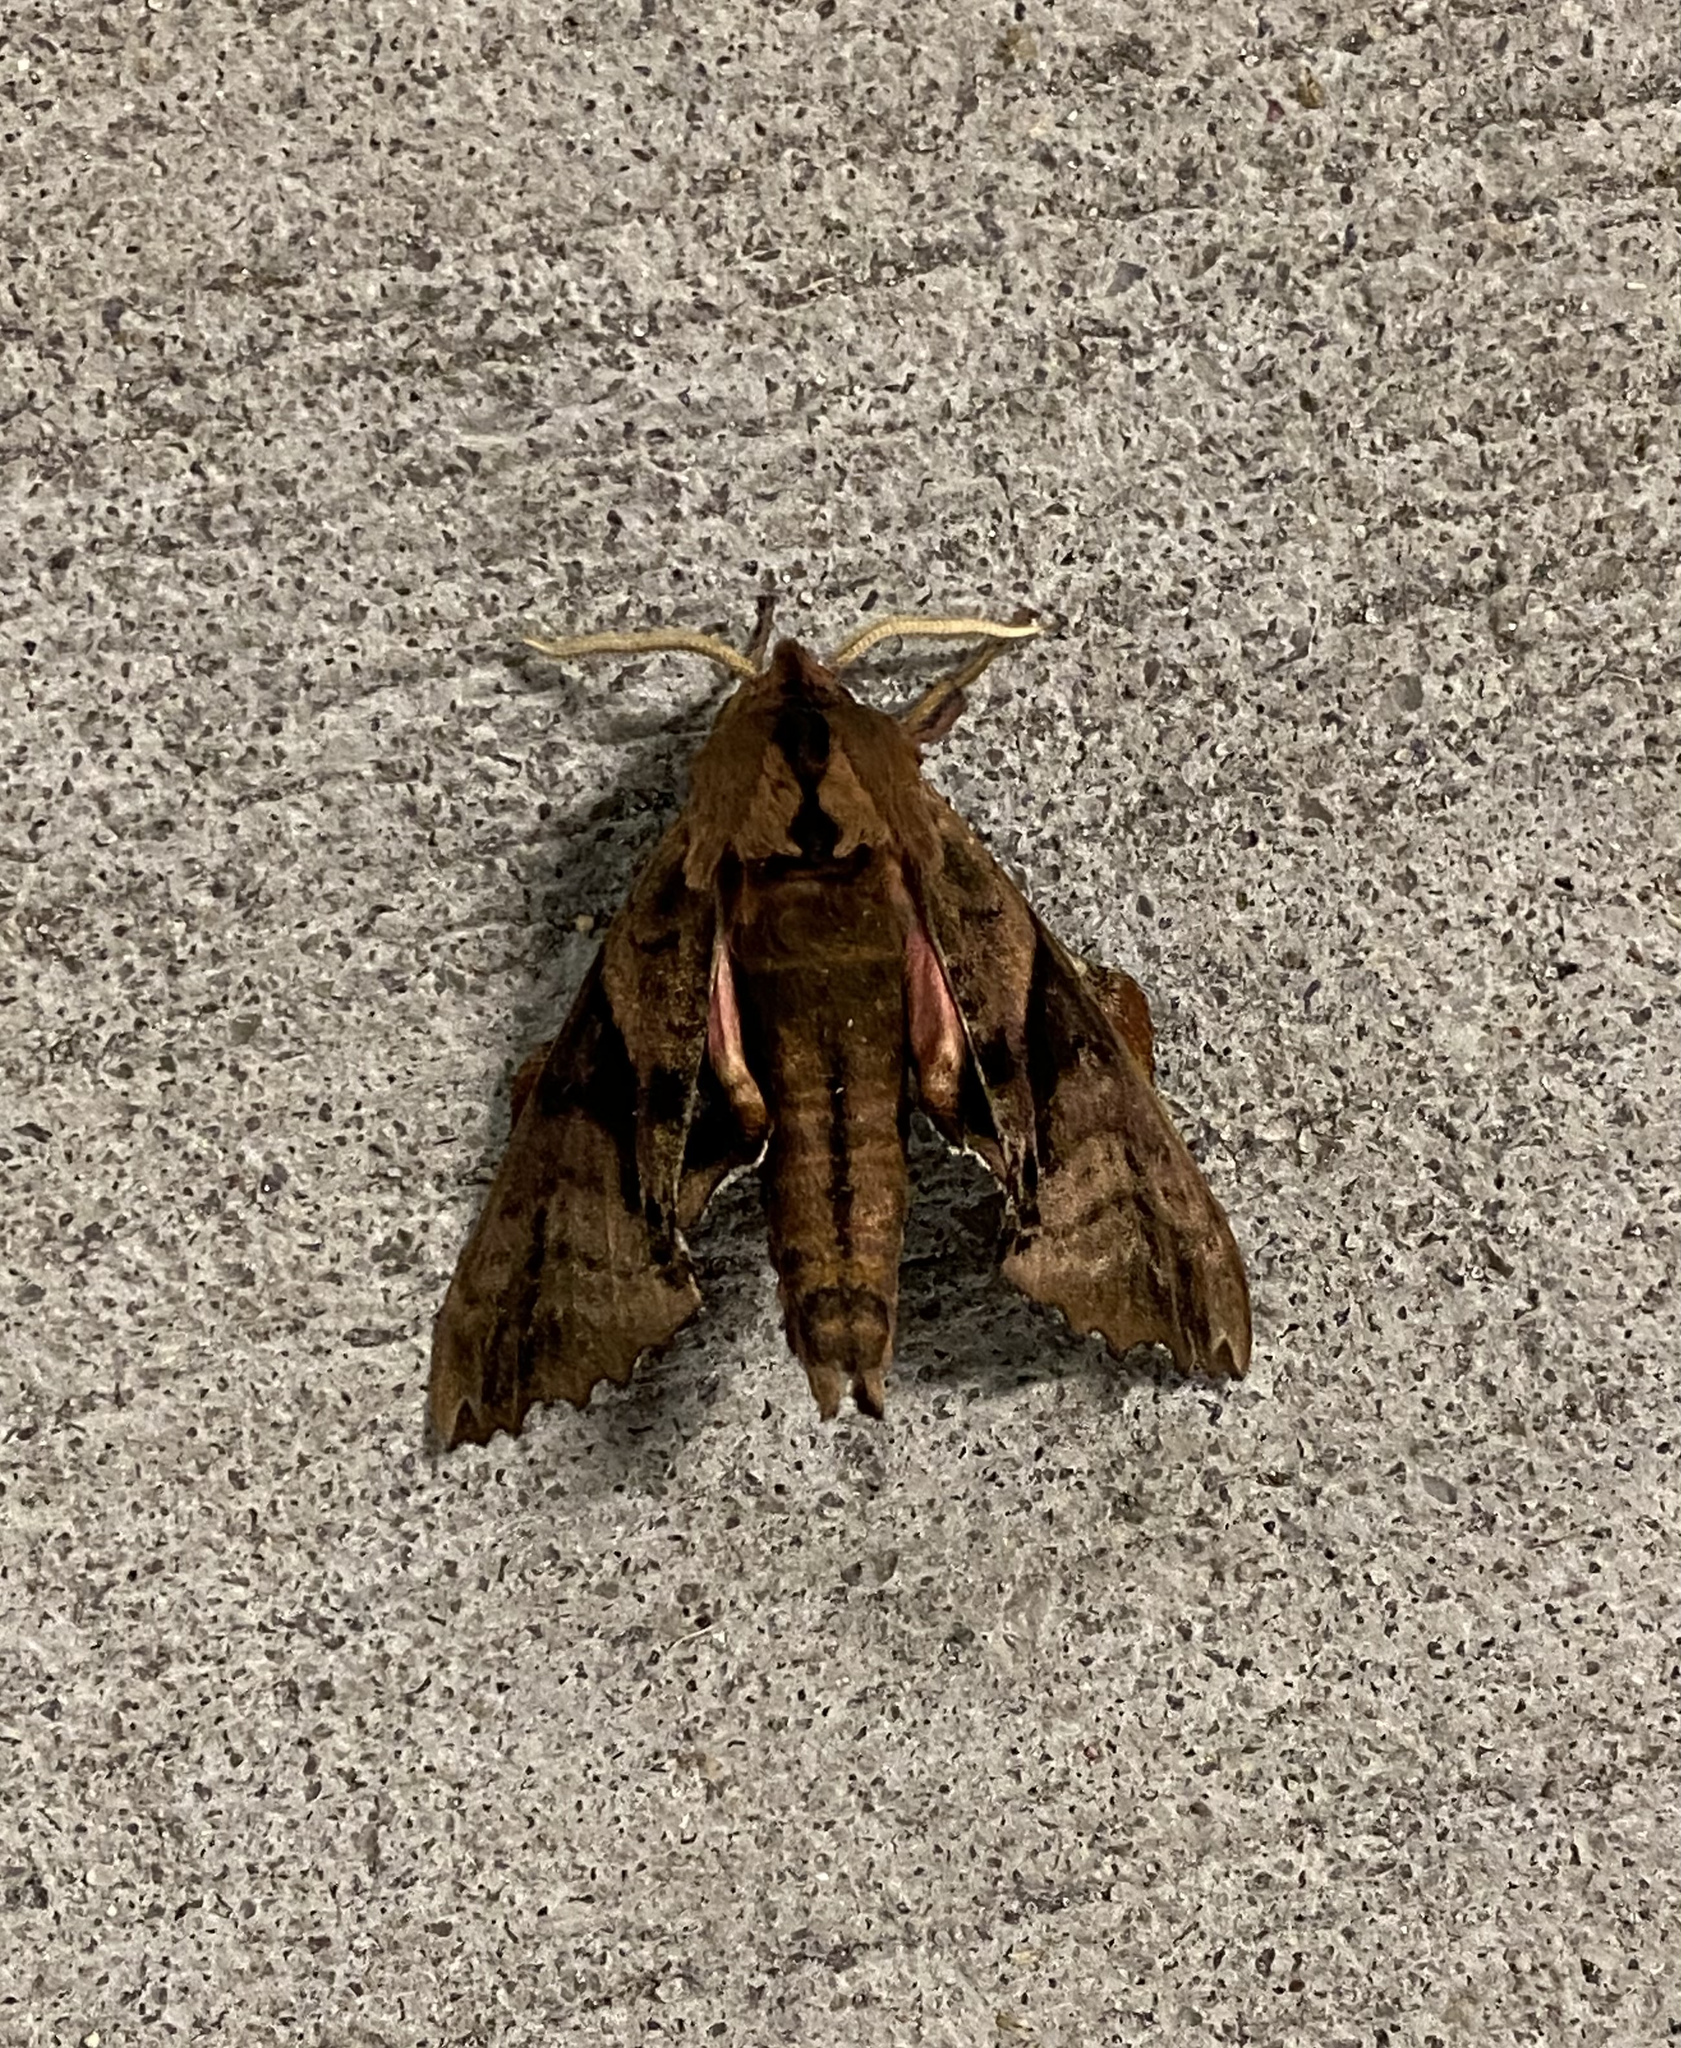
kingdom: Animalia
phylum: Arthropoda
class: Insecta
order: Lepidoptera
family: Sphingidae
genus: Paonias
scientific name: Paonias excaecata
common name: Blind-eyed sphinx
